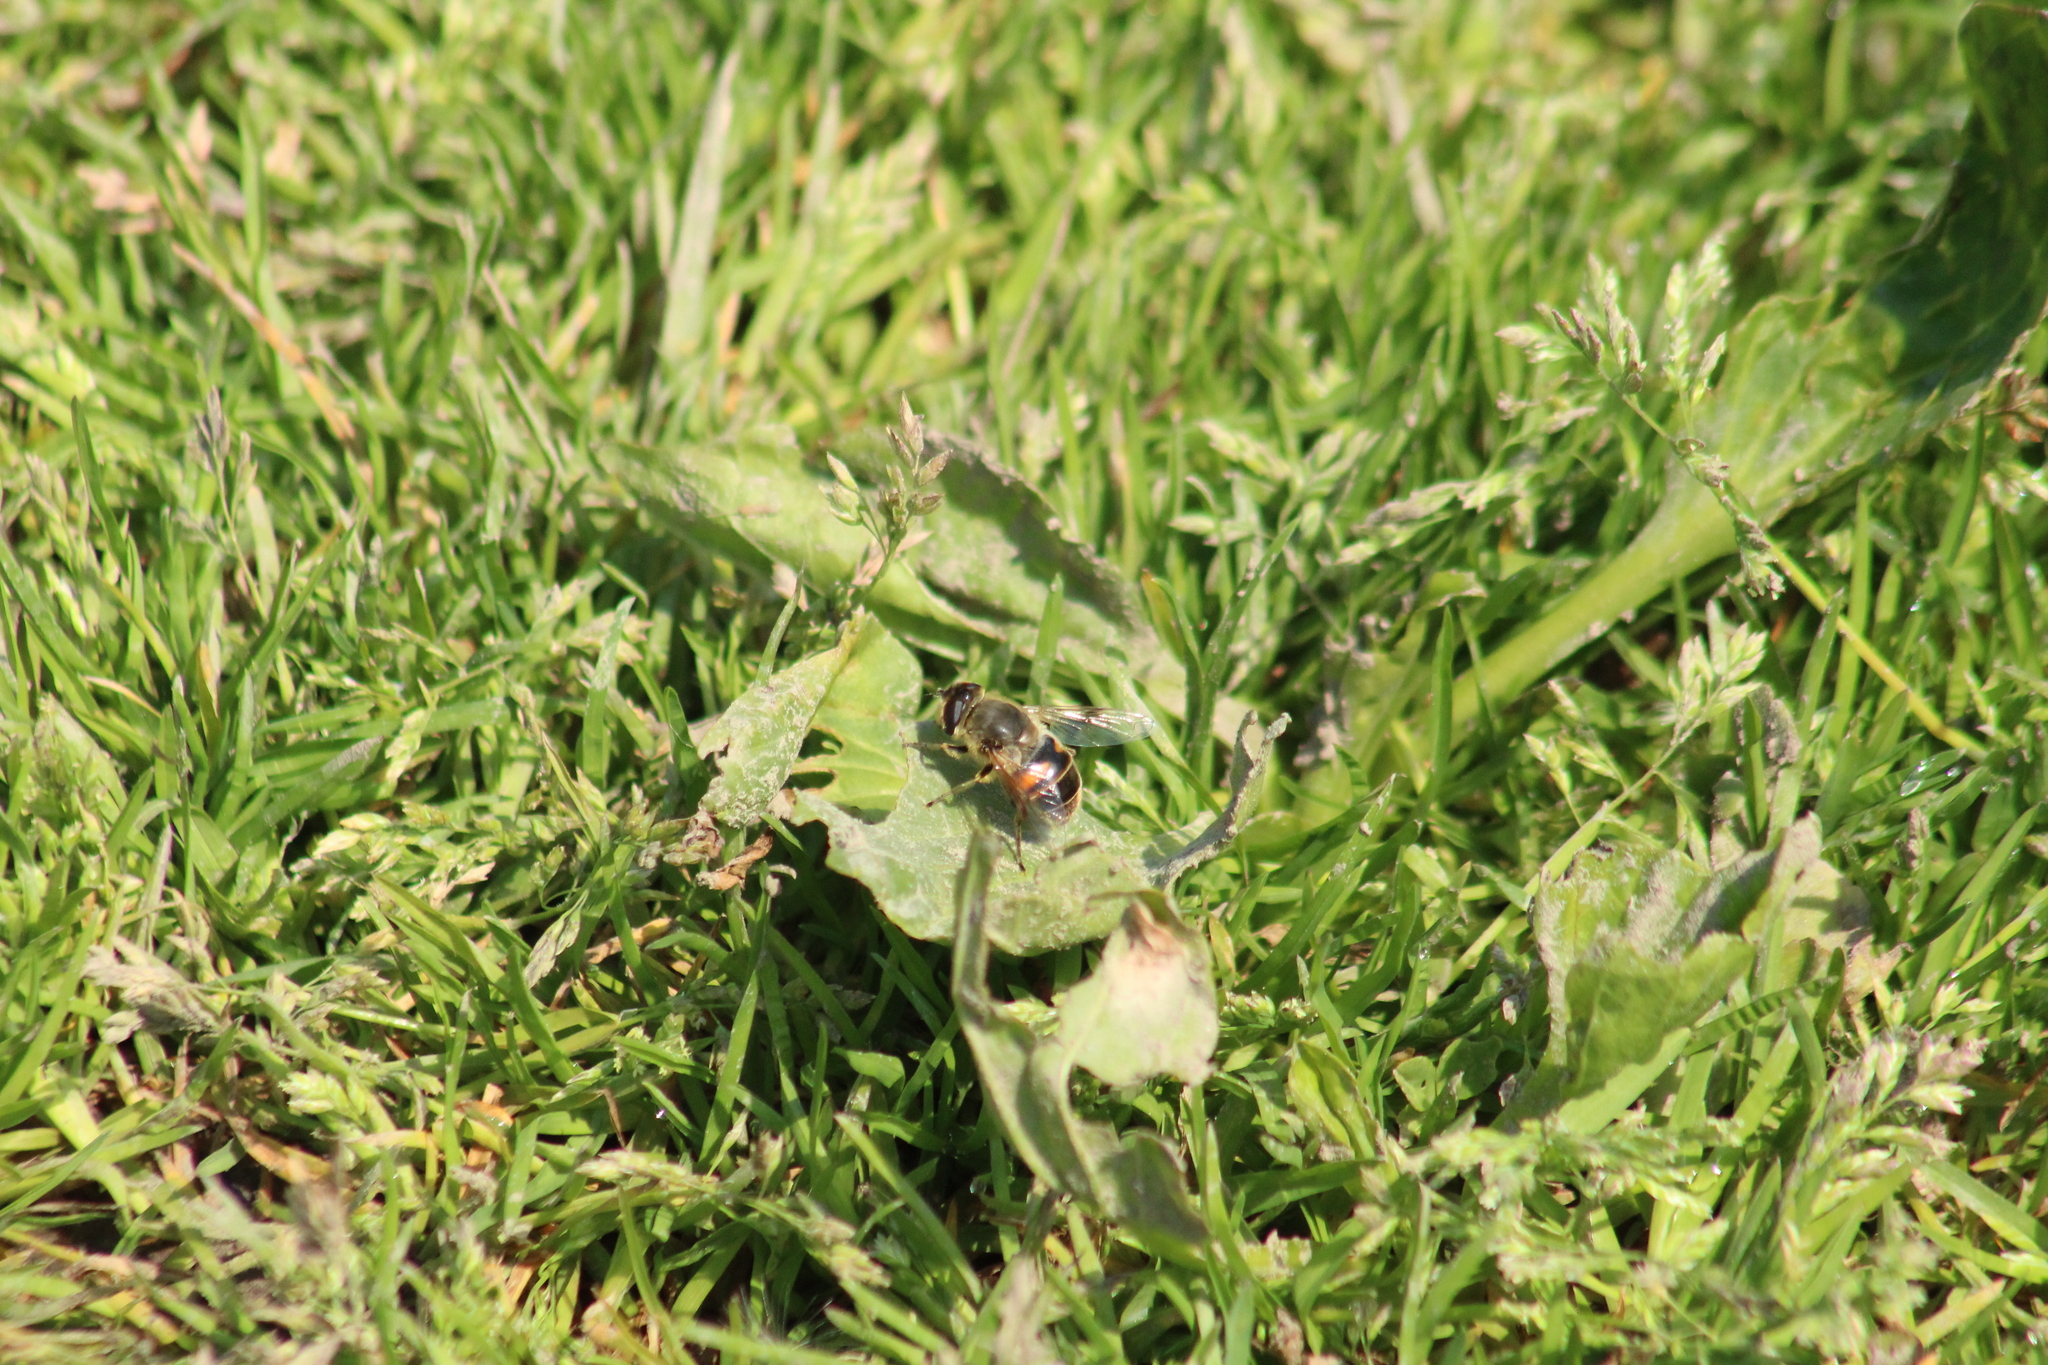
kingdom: Animalia
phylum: Arthropoda
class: Insecta
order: Diptera
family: Syrphidae
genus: Eristalis
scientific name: Eristalis tenax
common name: Drone fly
